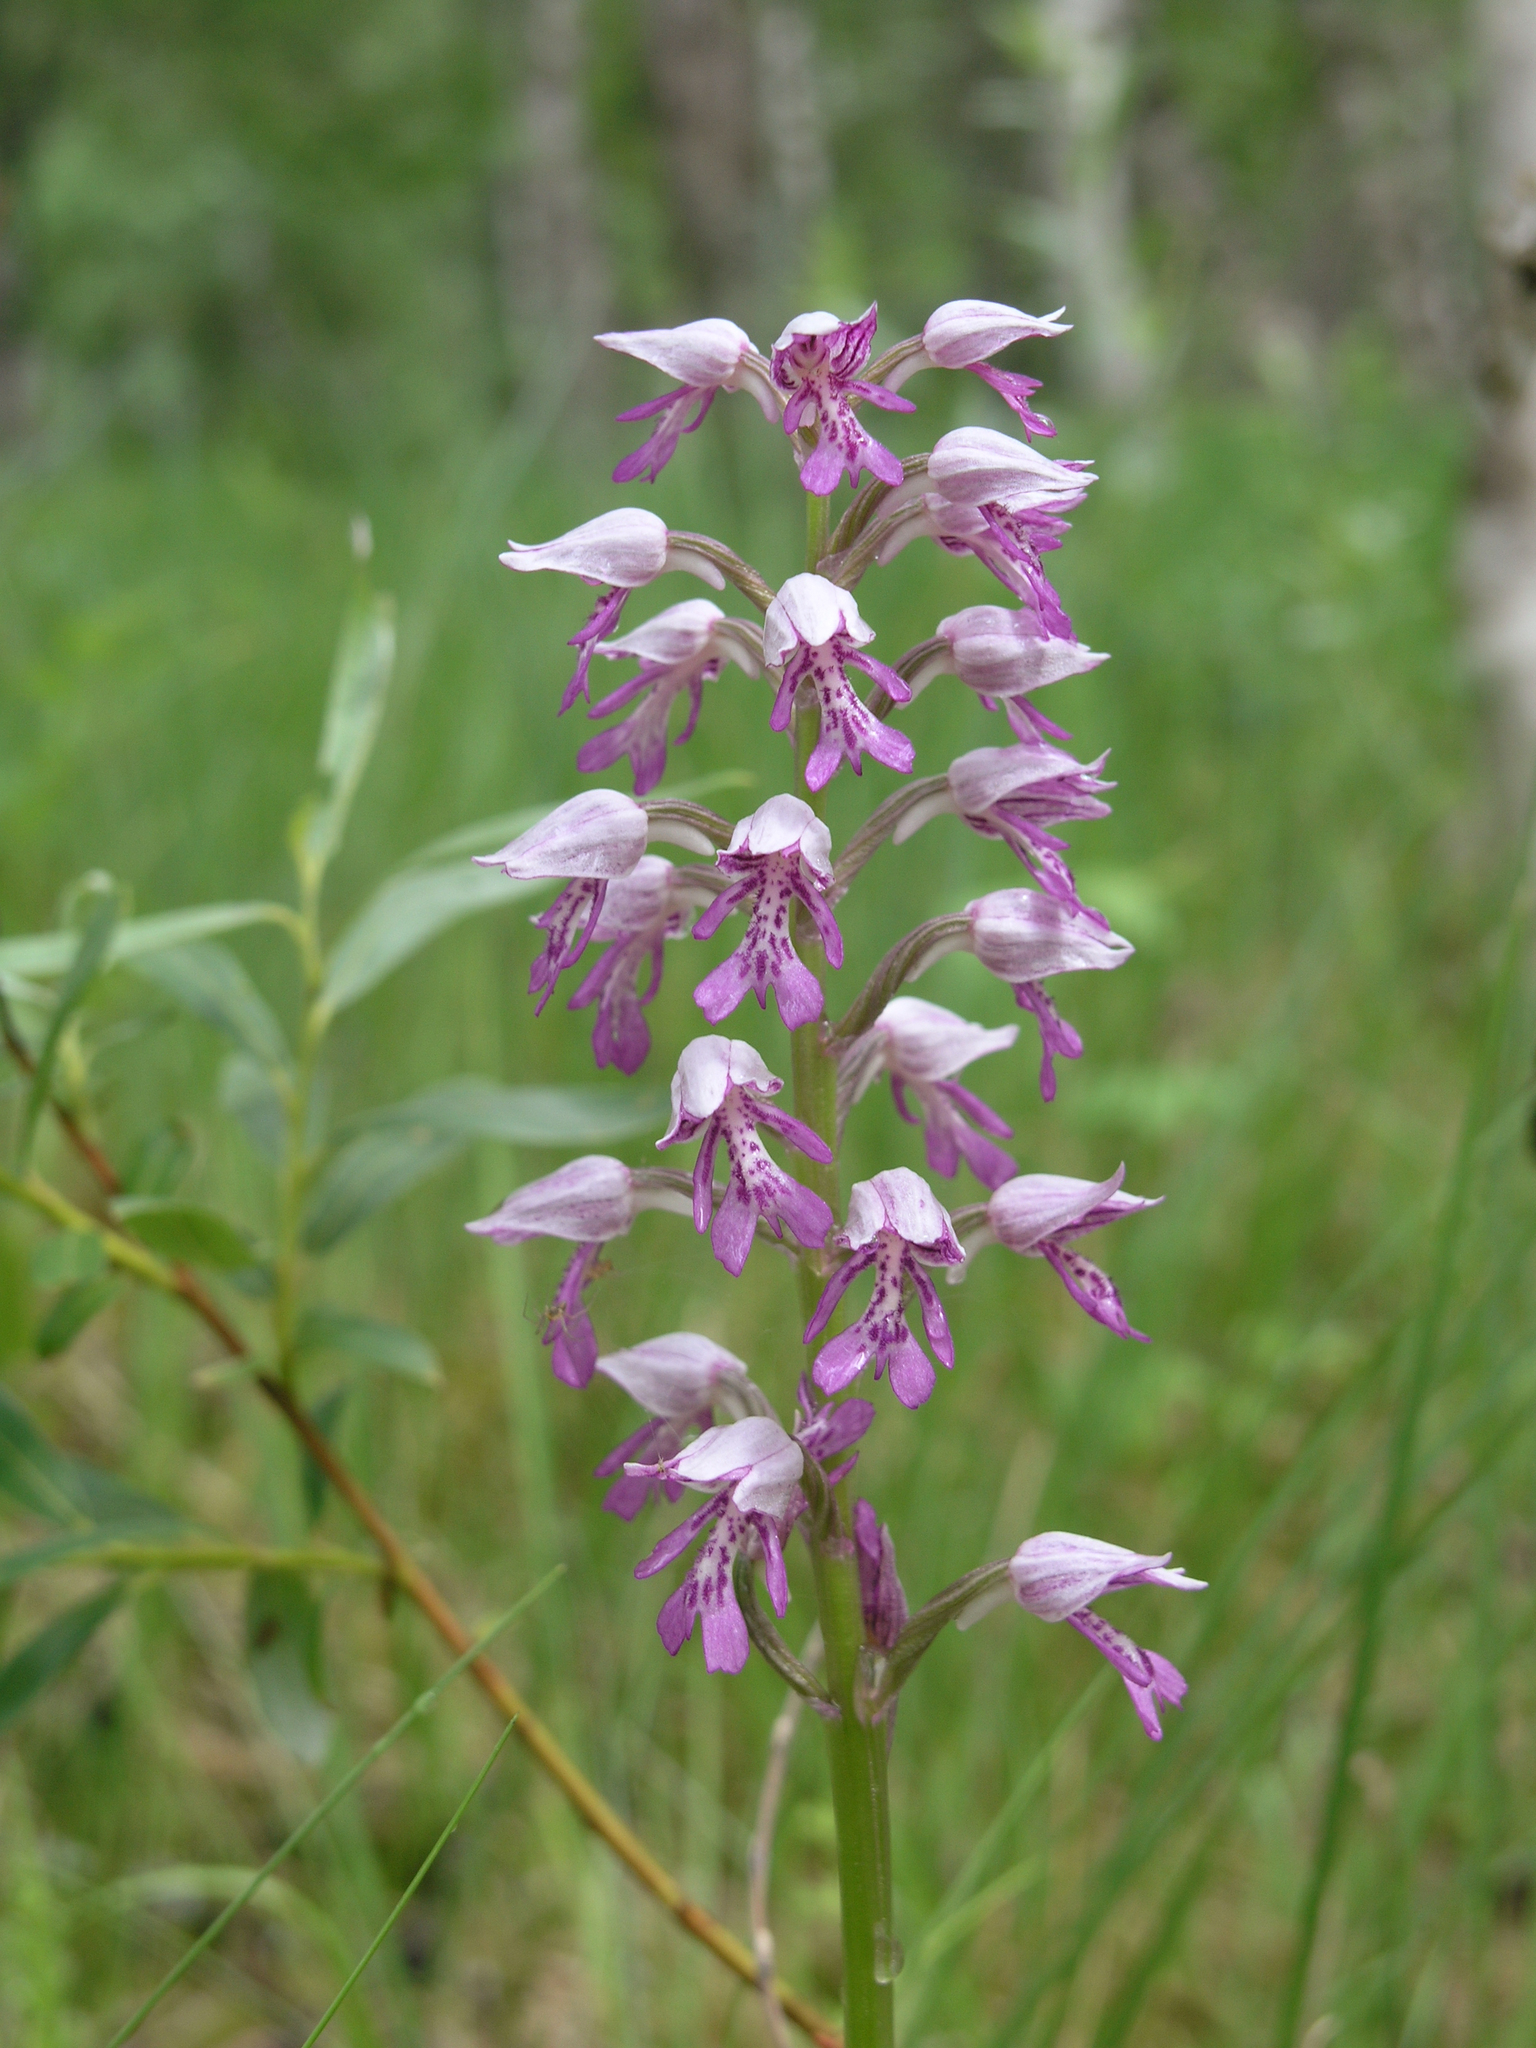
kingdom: Plantae
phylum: Tracheophyta
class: Liliopsida
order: Asparagales
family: Orchidaceae
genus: Orchis
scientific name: Orchis militaris
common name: Military orchid
